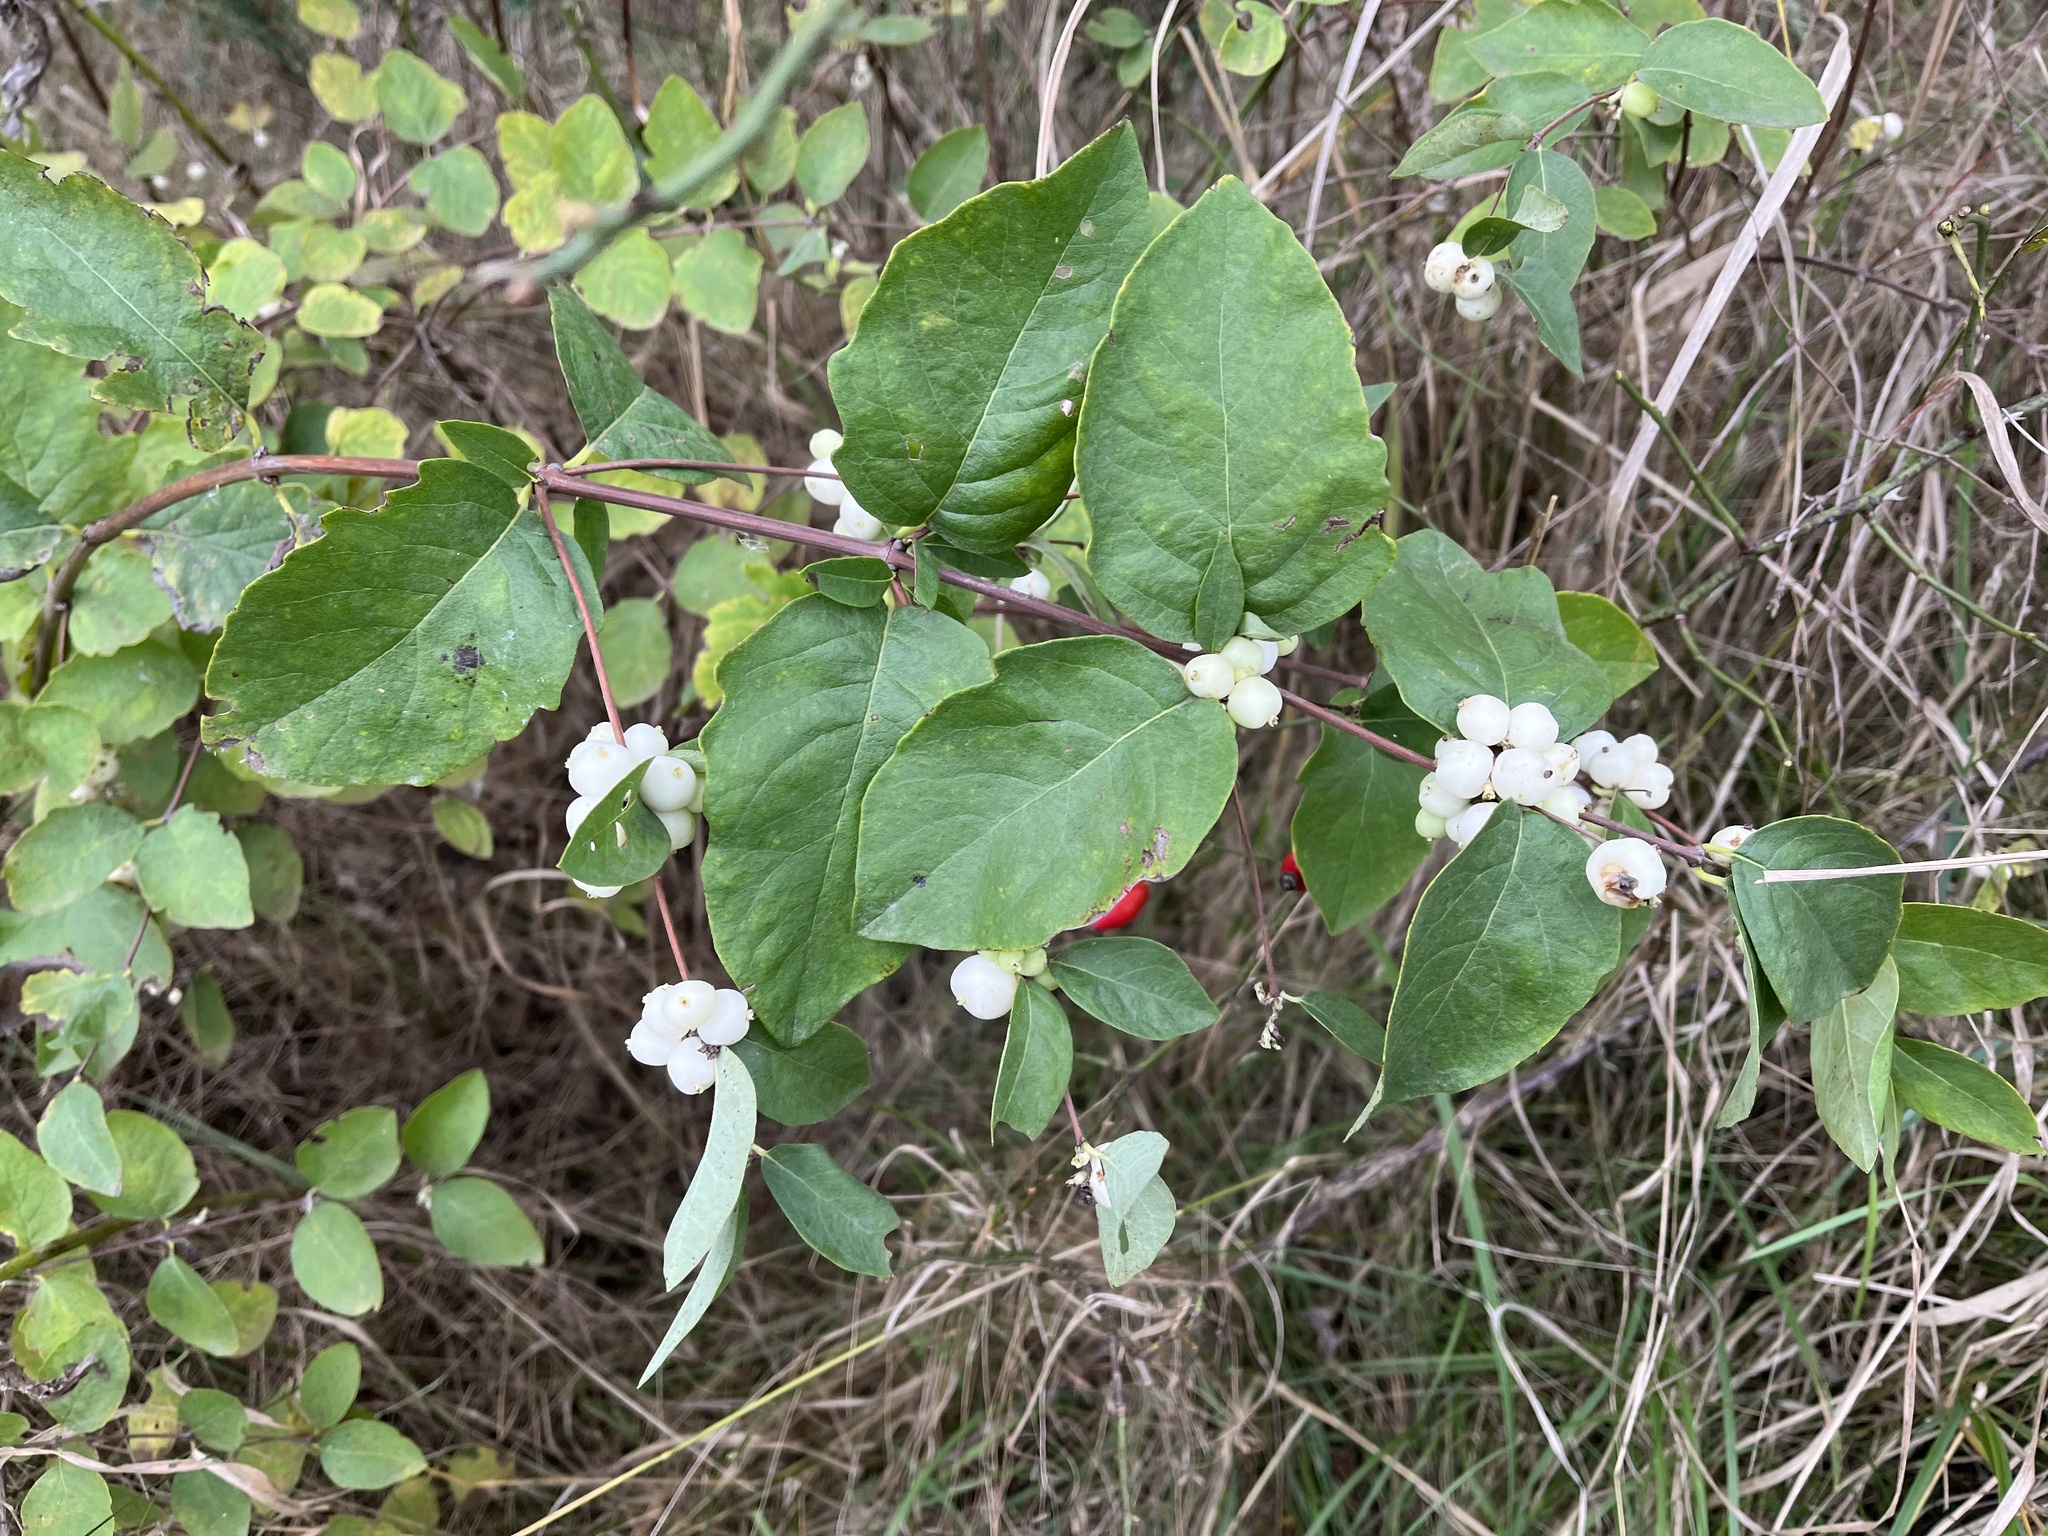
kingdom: Plantae
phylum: Tracheophyta
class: Magnoliopsida
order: Dipsacales
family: Caprifoliaceae
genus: Symphoricarpos
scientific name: Symphoricarpos albus
